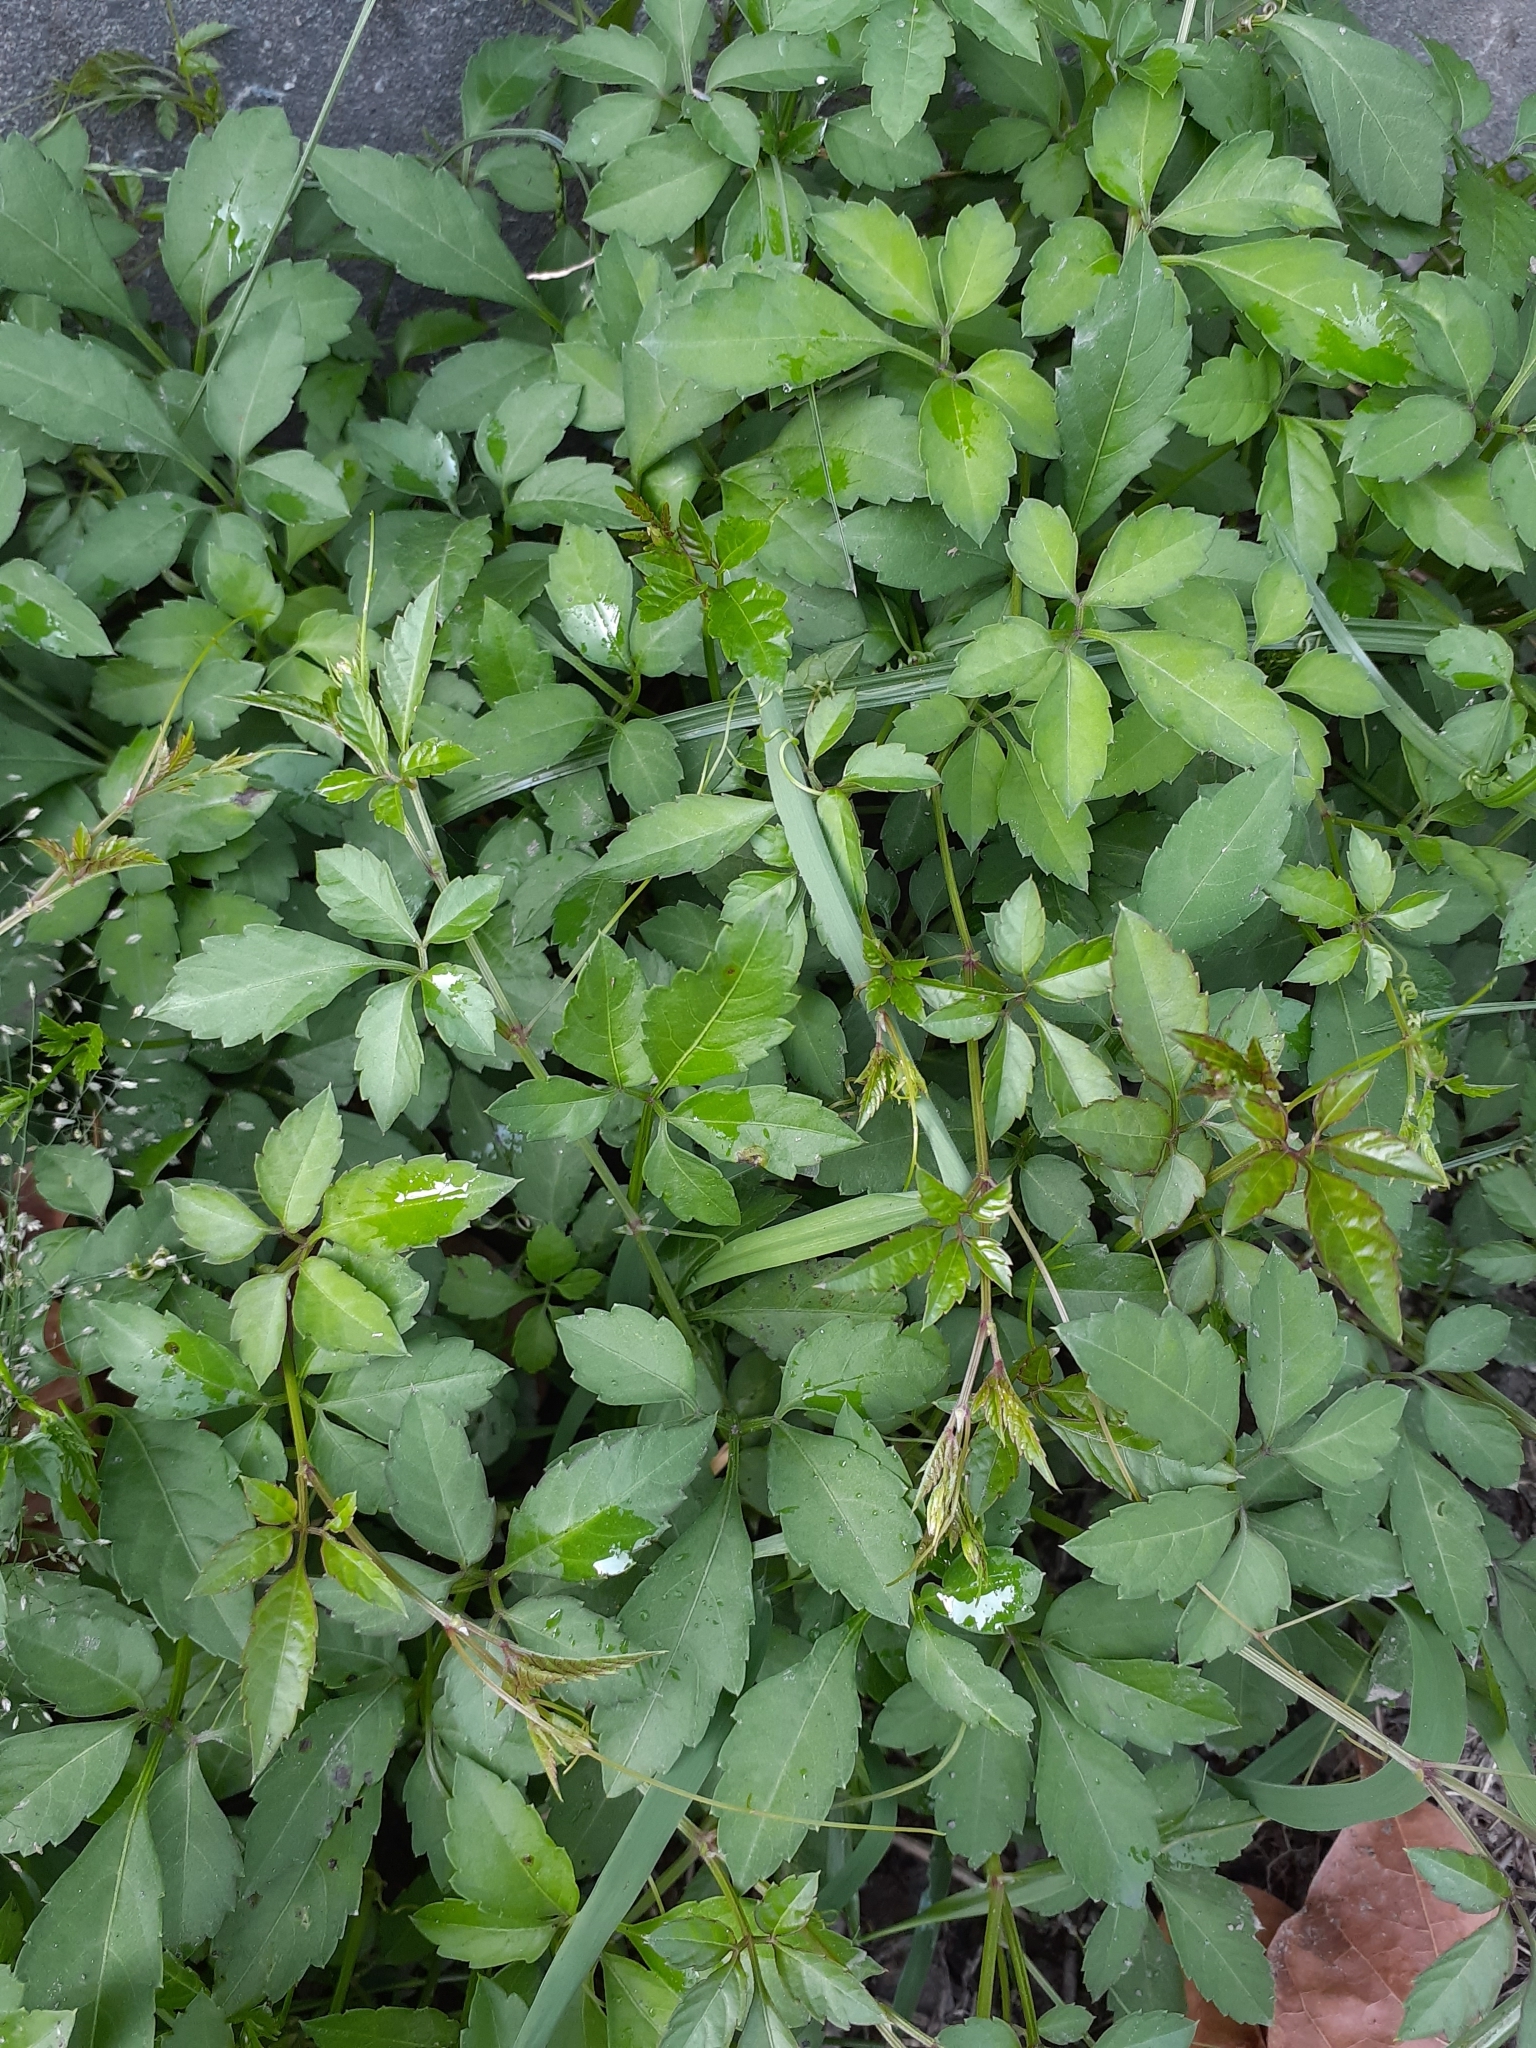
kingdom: Plantae
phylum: Tracheophyta
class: Magnoliopsida
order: Vitales
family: Vitaceae
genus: Causonis
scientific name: Causonis japonica
